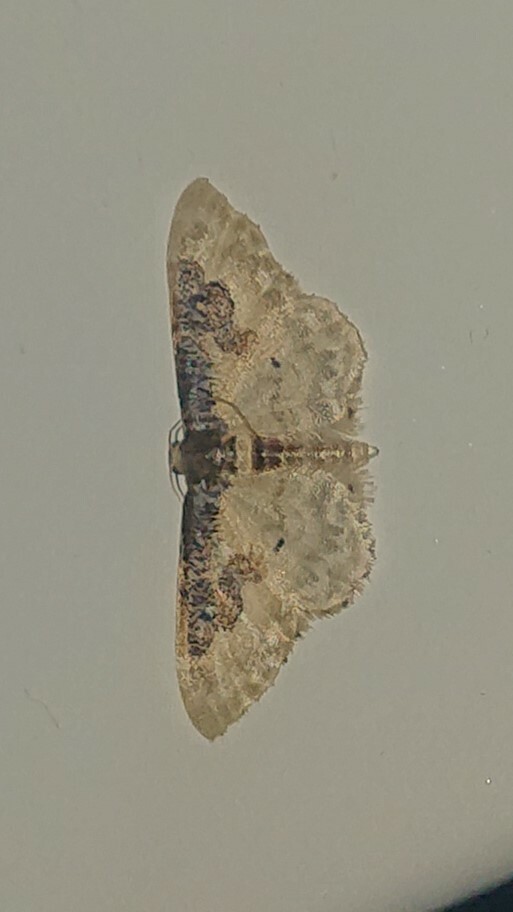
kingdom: Animalia
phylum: Arthropoda
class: Insecta
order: Lepidoptera
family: Geometridae
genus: Idaea
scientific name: Idaea rusticata
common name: Least carpet
